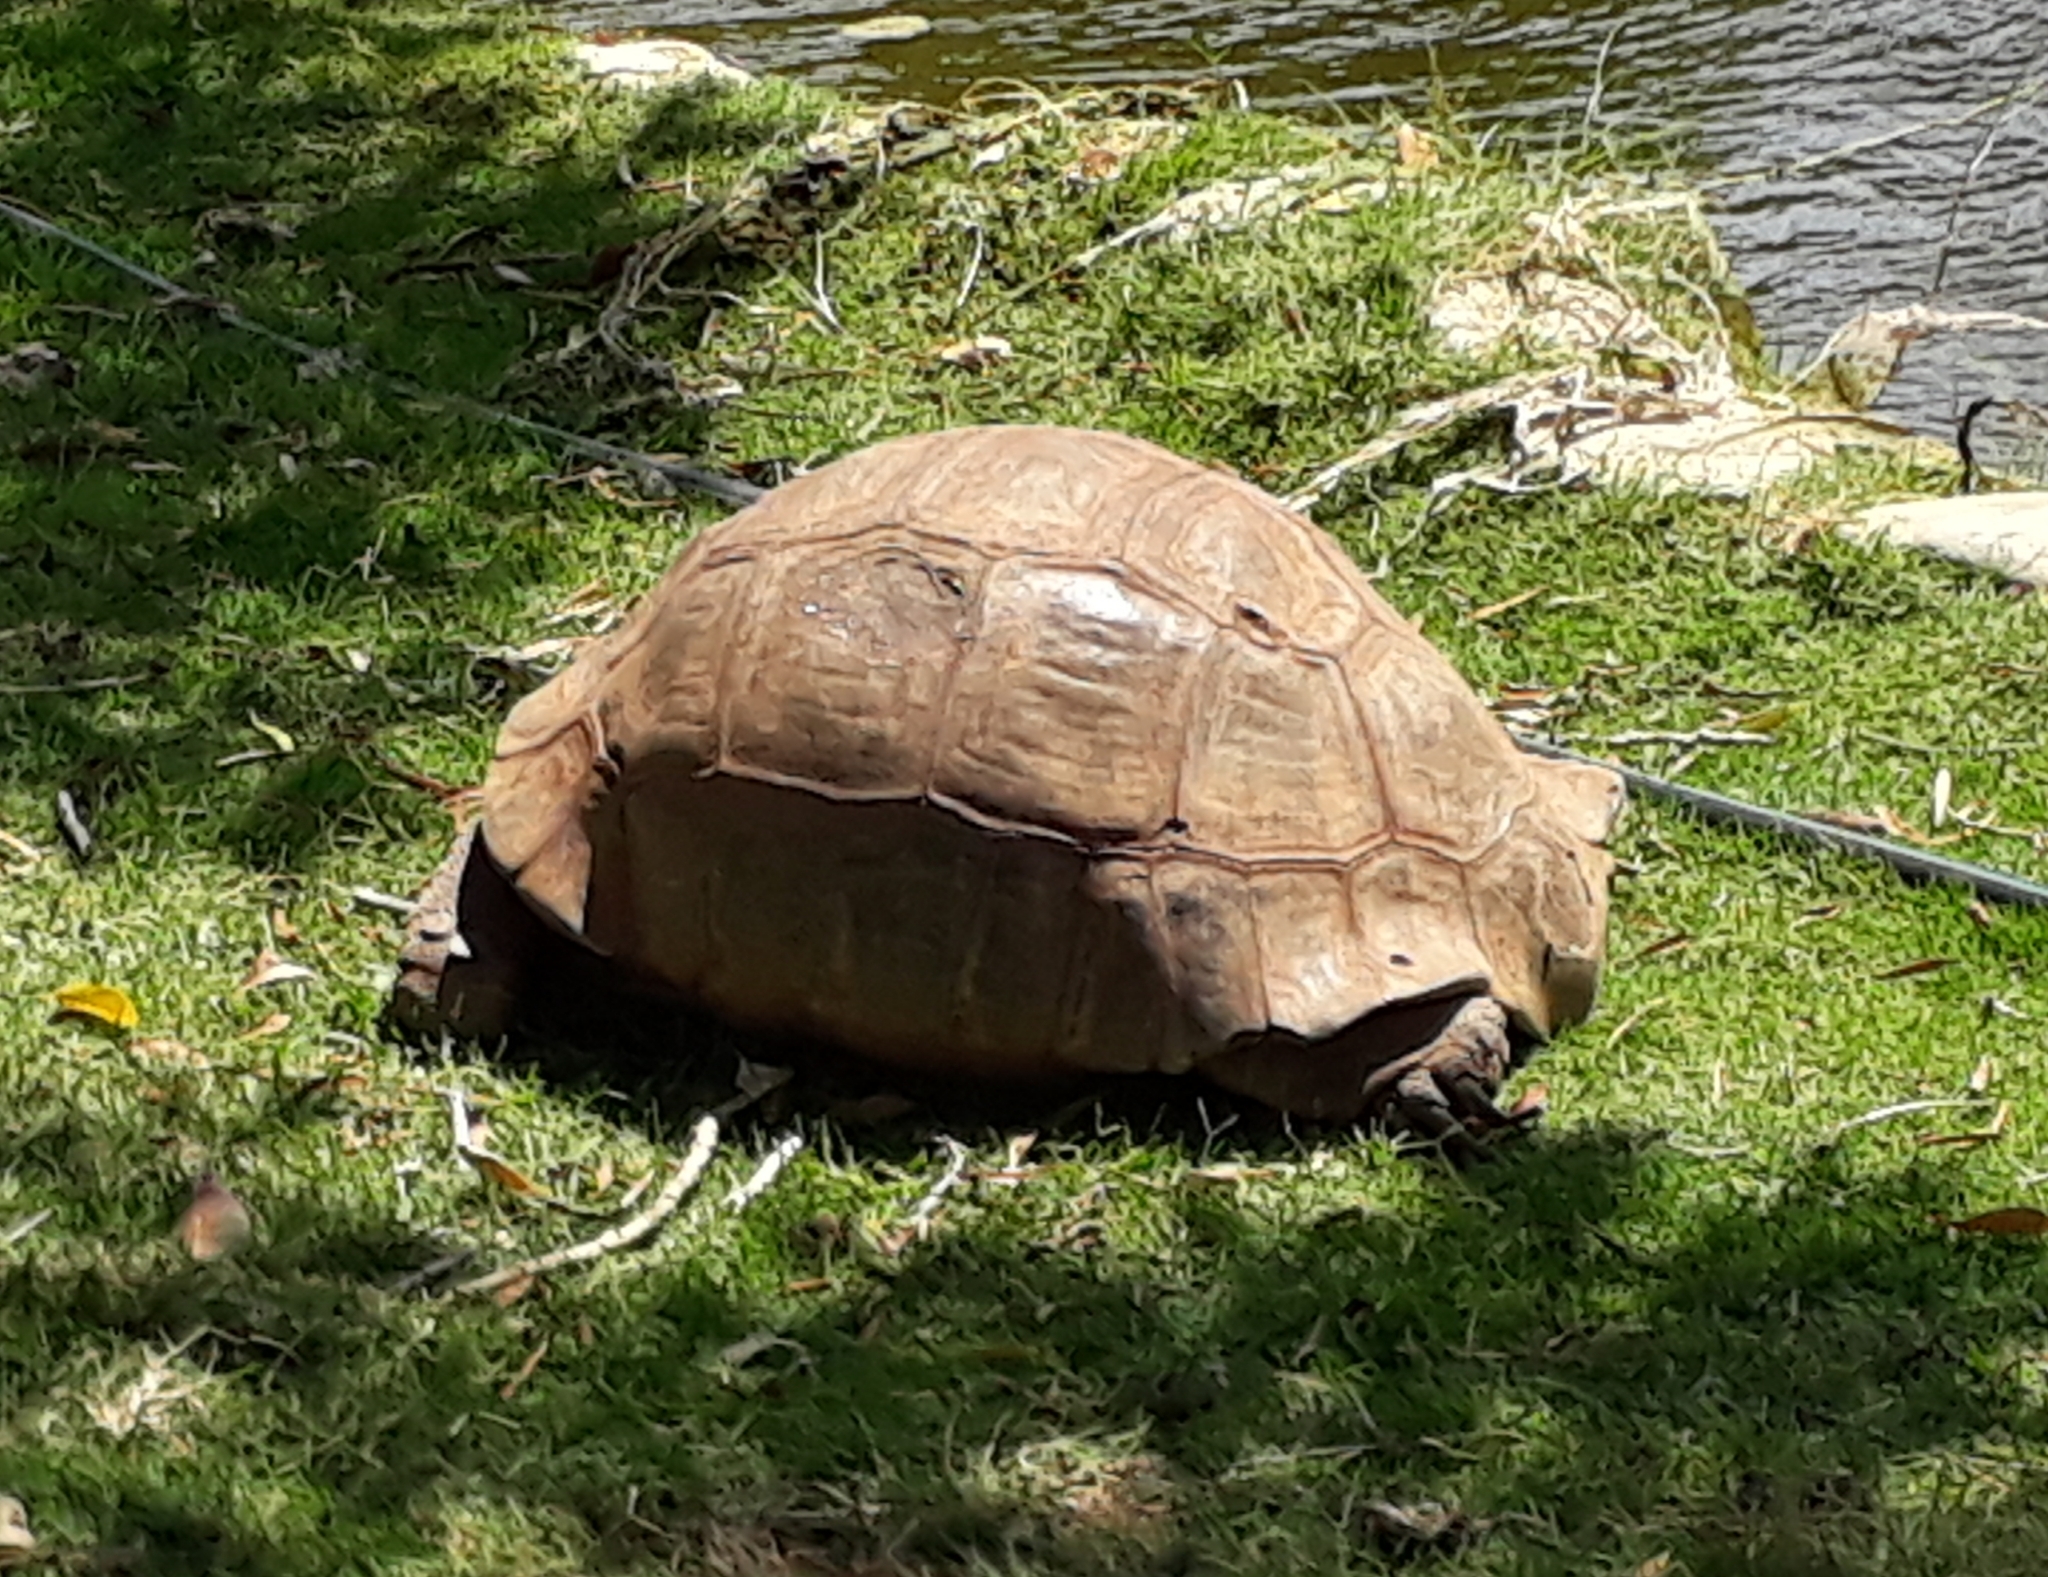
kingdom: Animalia
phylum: Chordata
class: Testudines
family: Testudinidae
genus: Stigmochelys
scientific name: Stigmochelys pardalis
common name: Leopard tortoise
